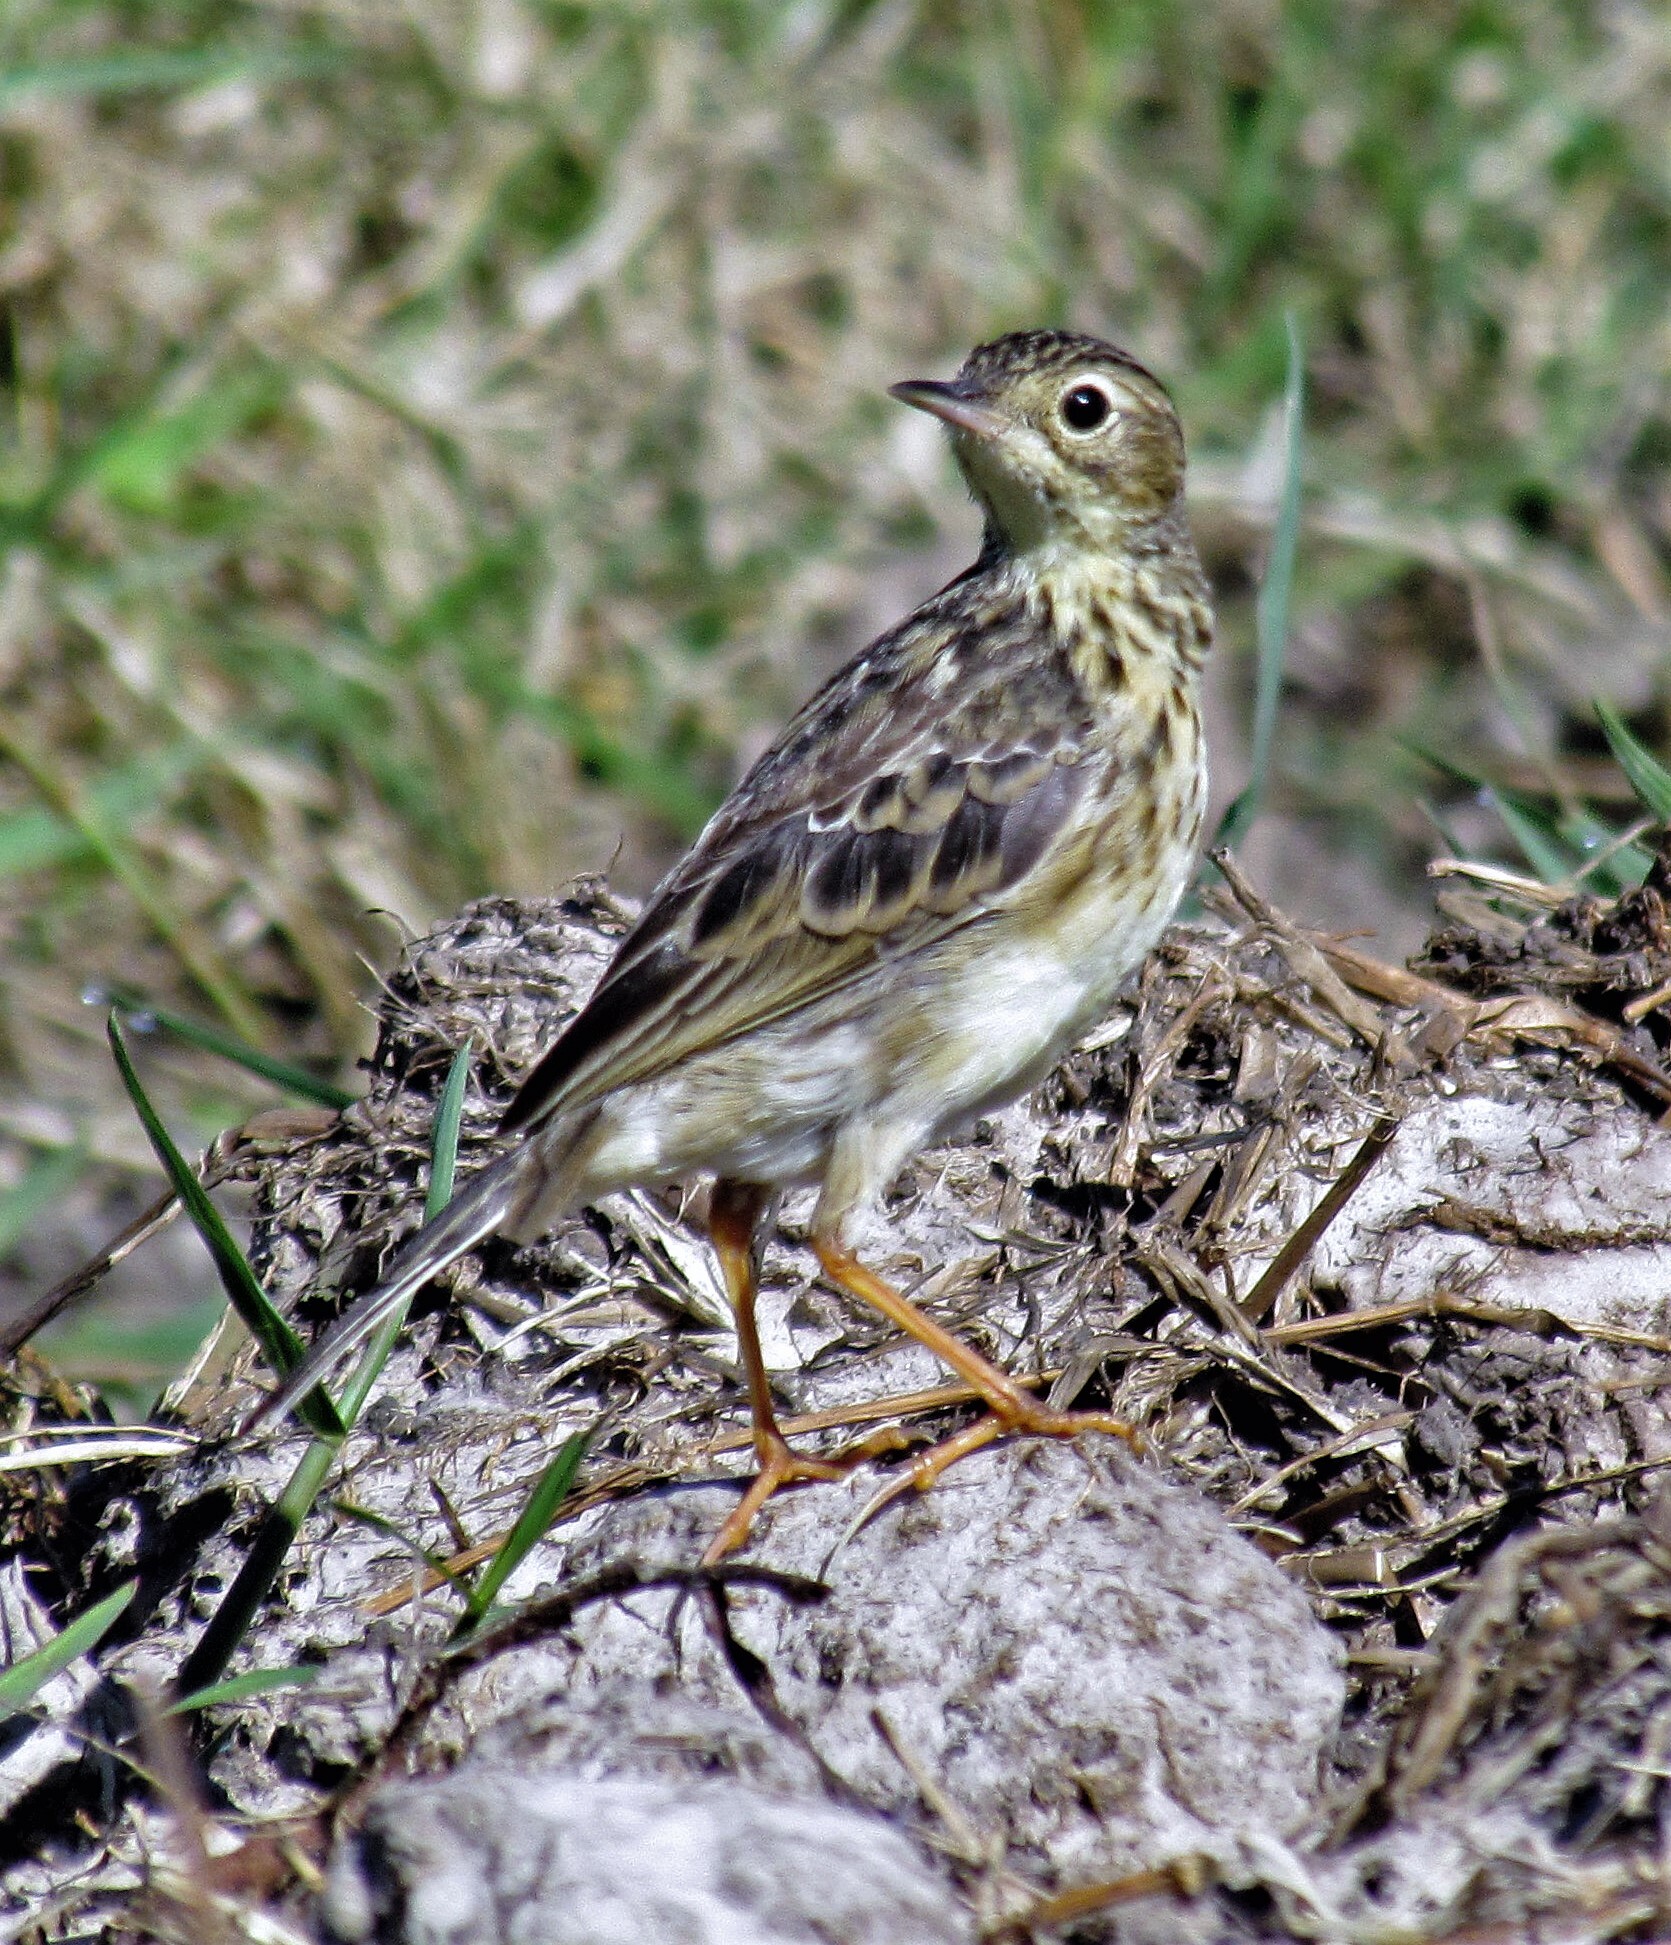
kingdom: Animalia
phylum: Chordata
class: Aves
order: Passeriformes
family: Motacillidae
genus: Anthus
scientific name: Anthus chii
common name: Yellowish pipit
